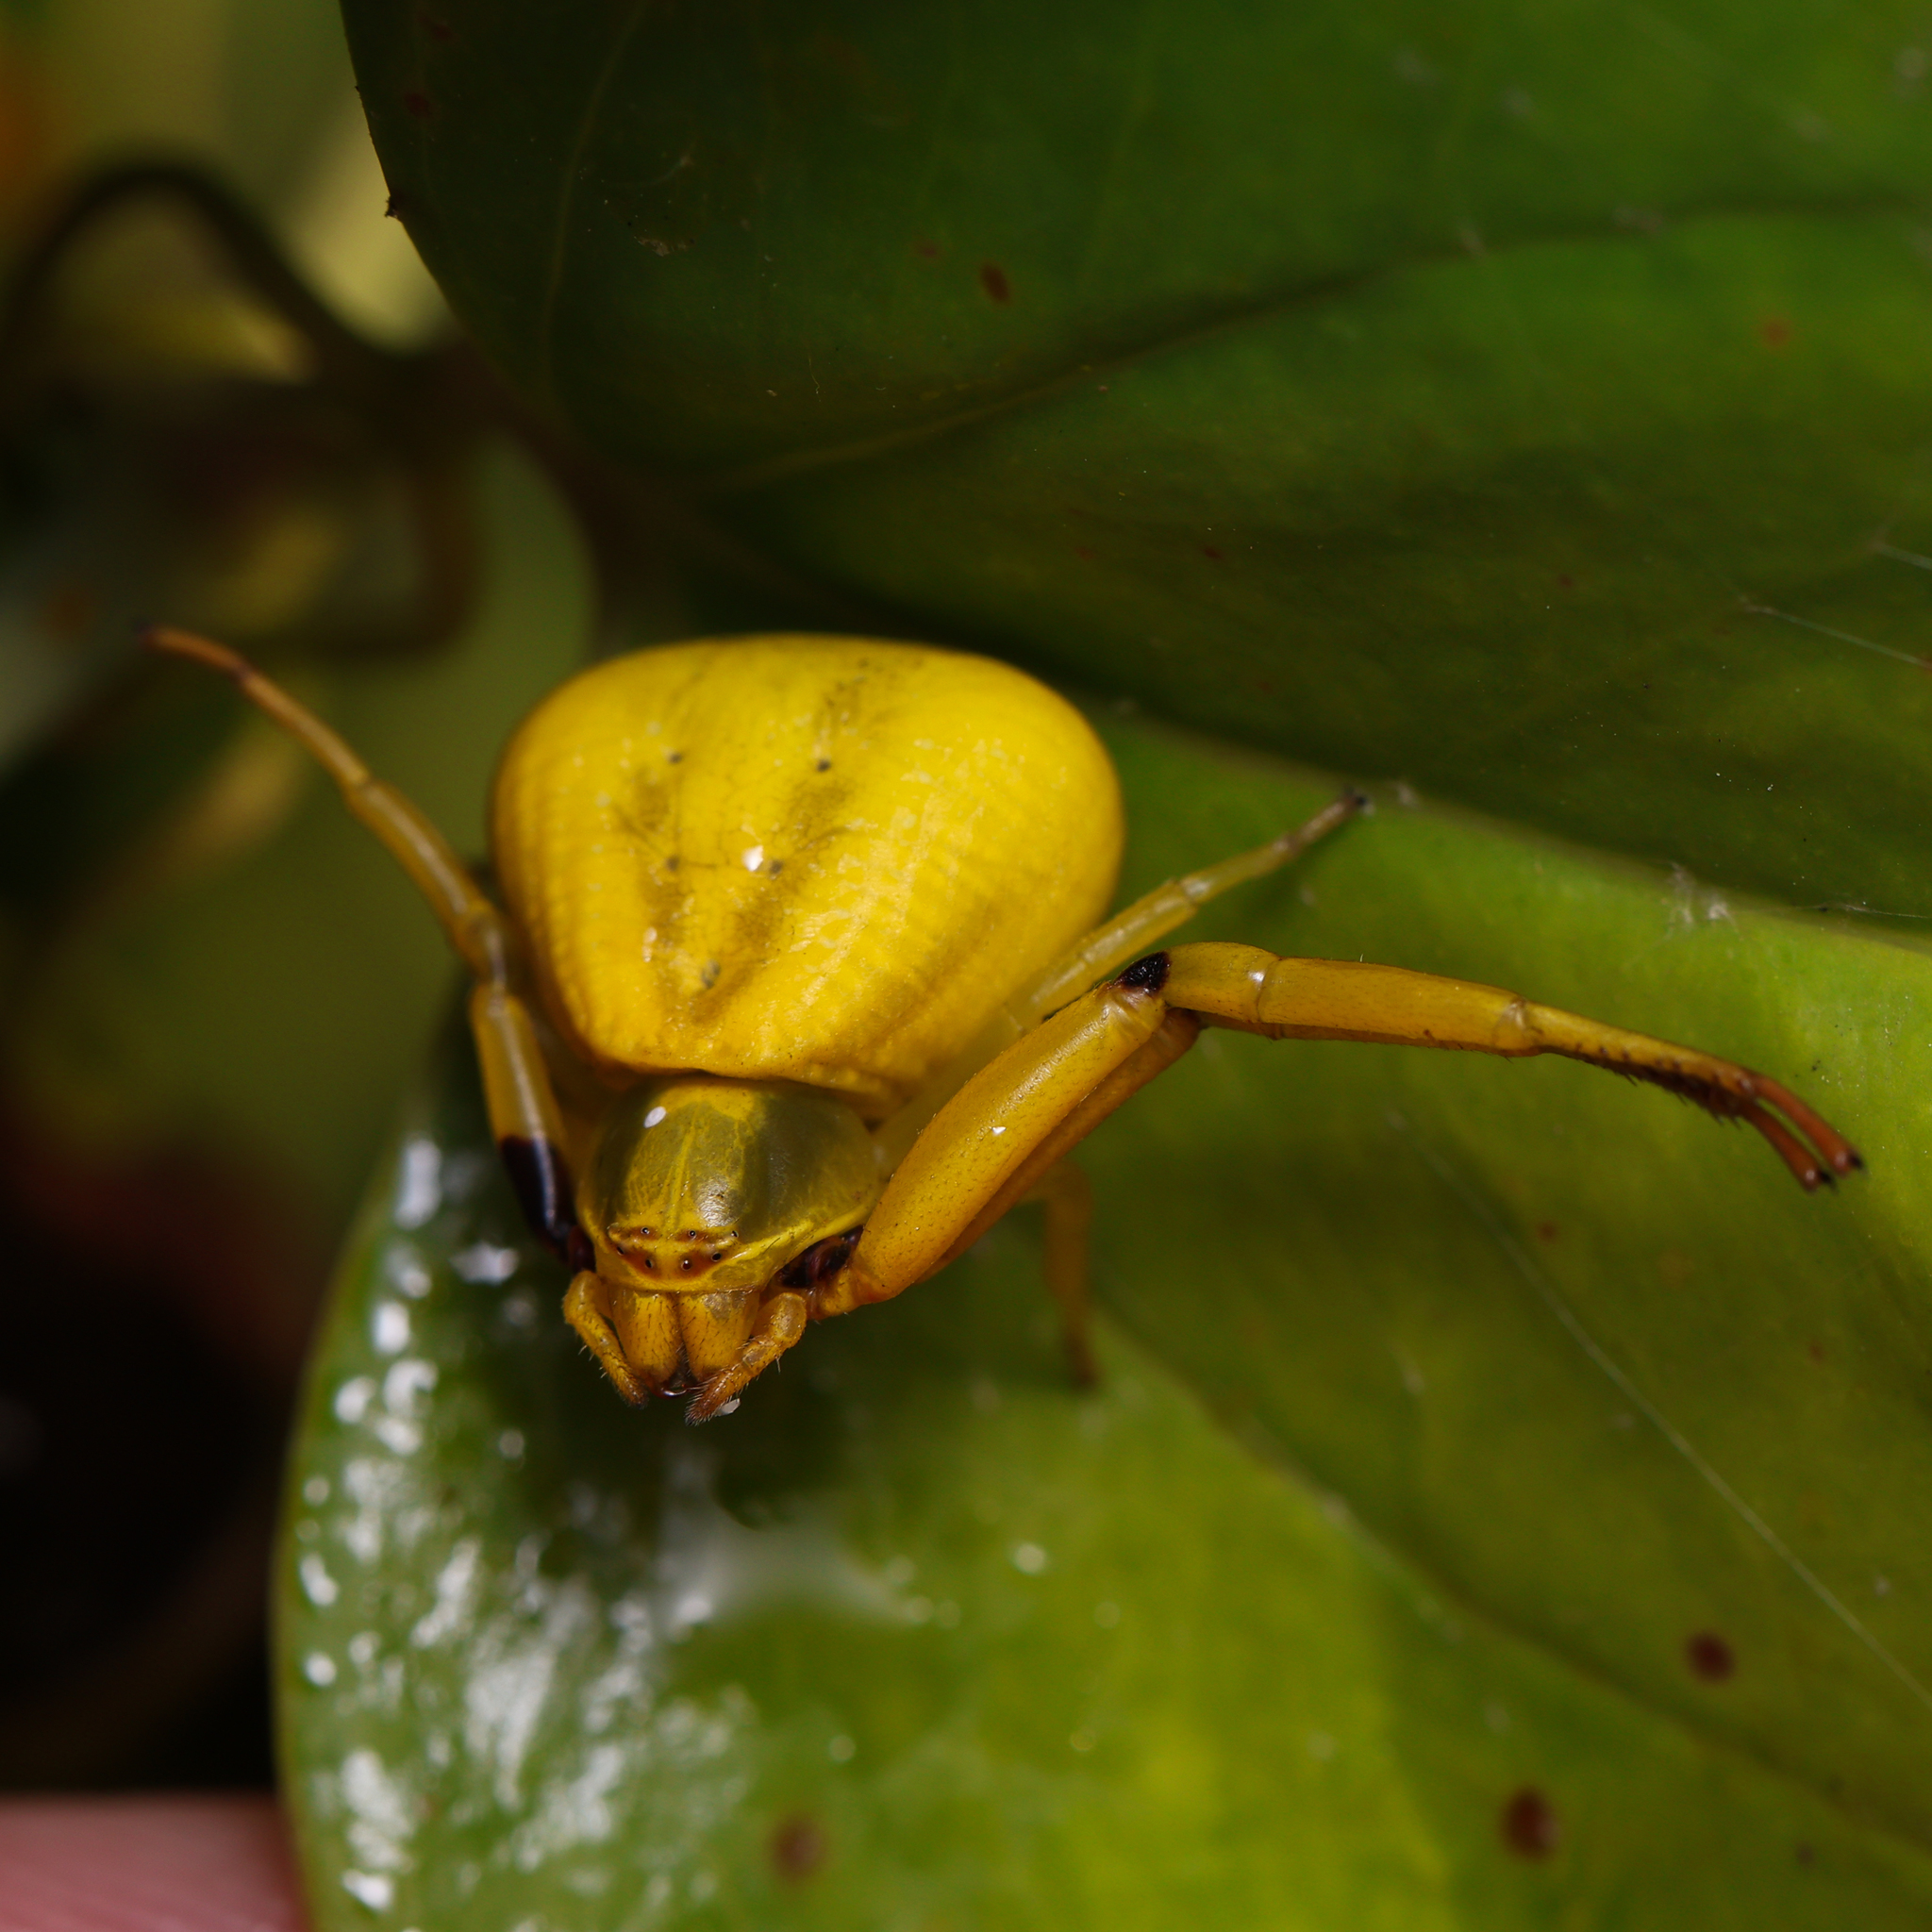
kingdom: Animalia
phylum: Arthropoda
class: Arachnida
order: Araneae
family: Thomisidae
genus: Misumenoides
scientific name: Misumenoides formosipes
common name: White-banded crab spider
